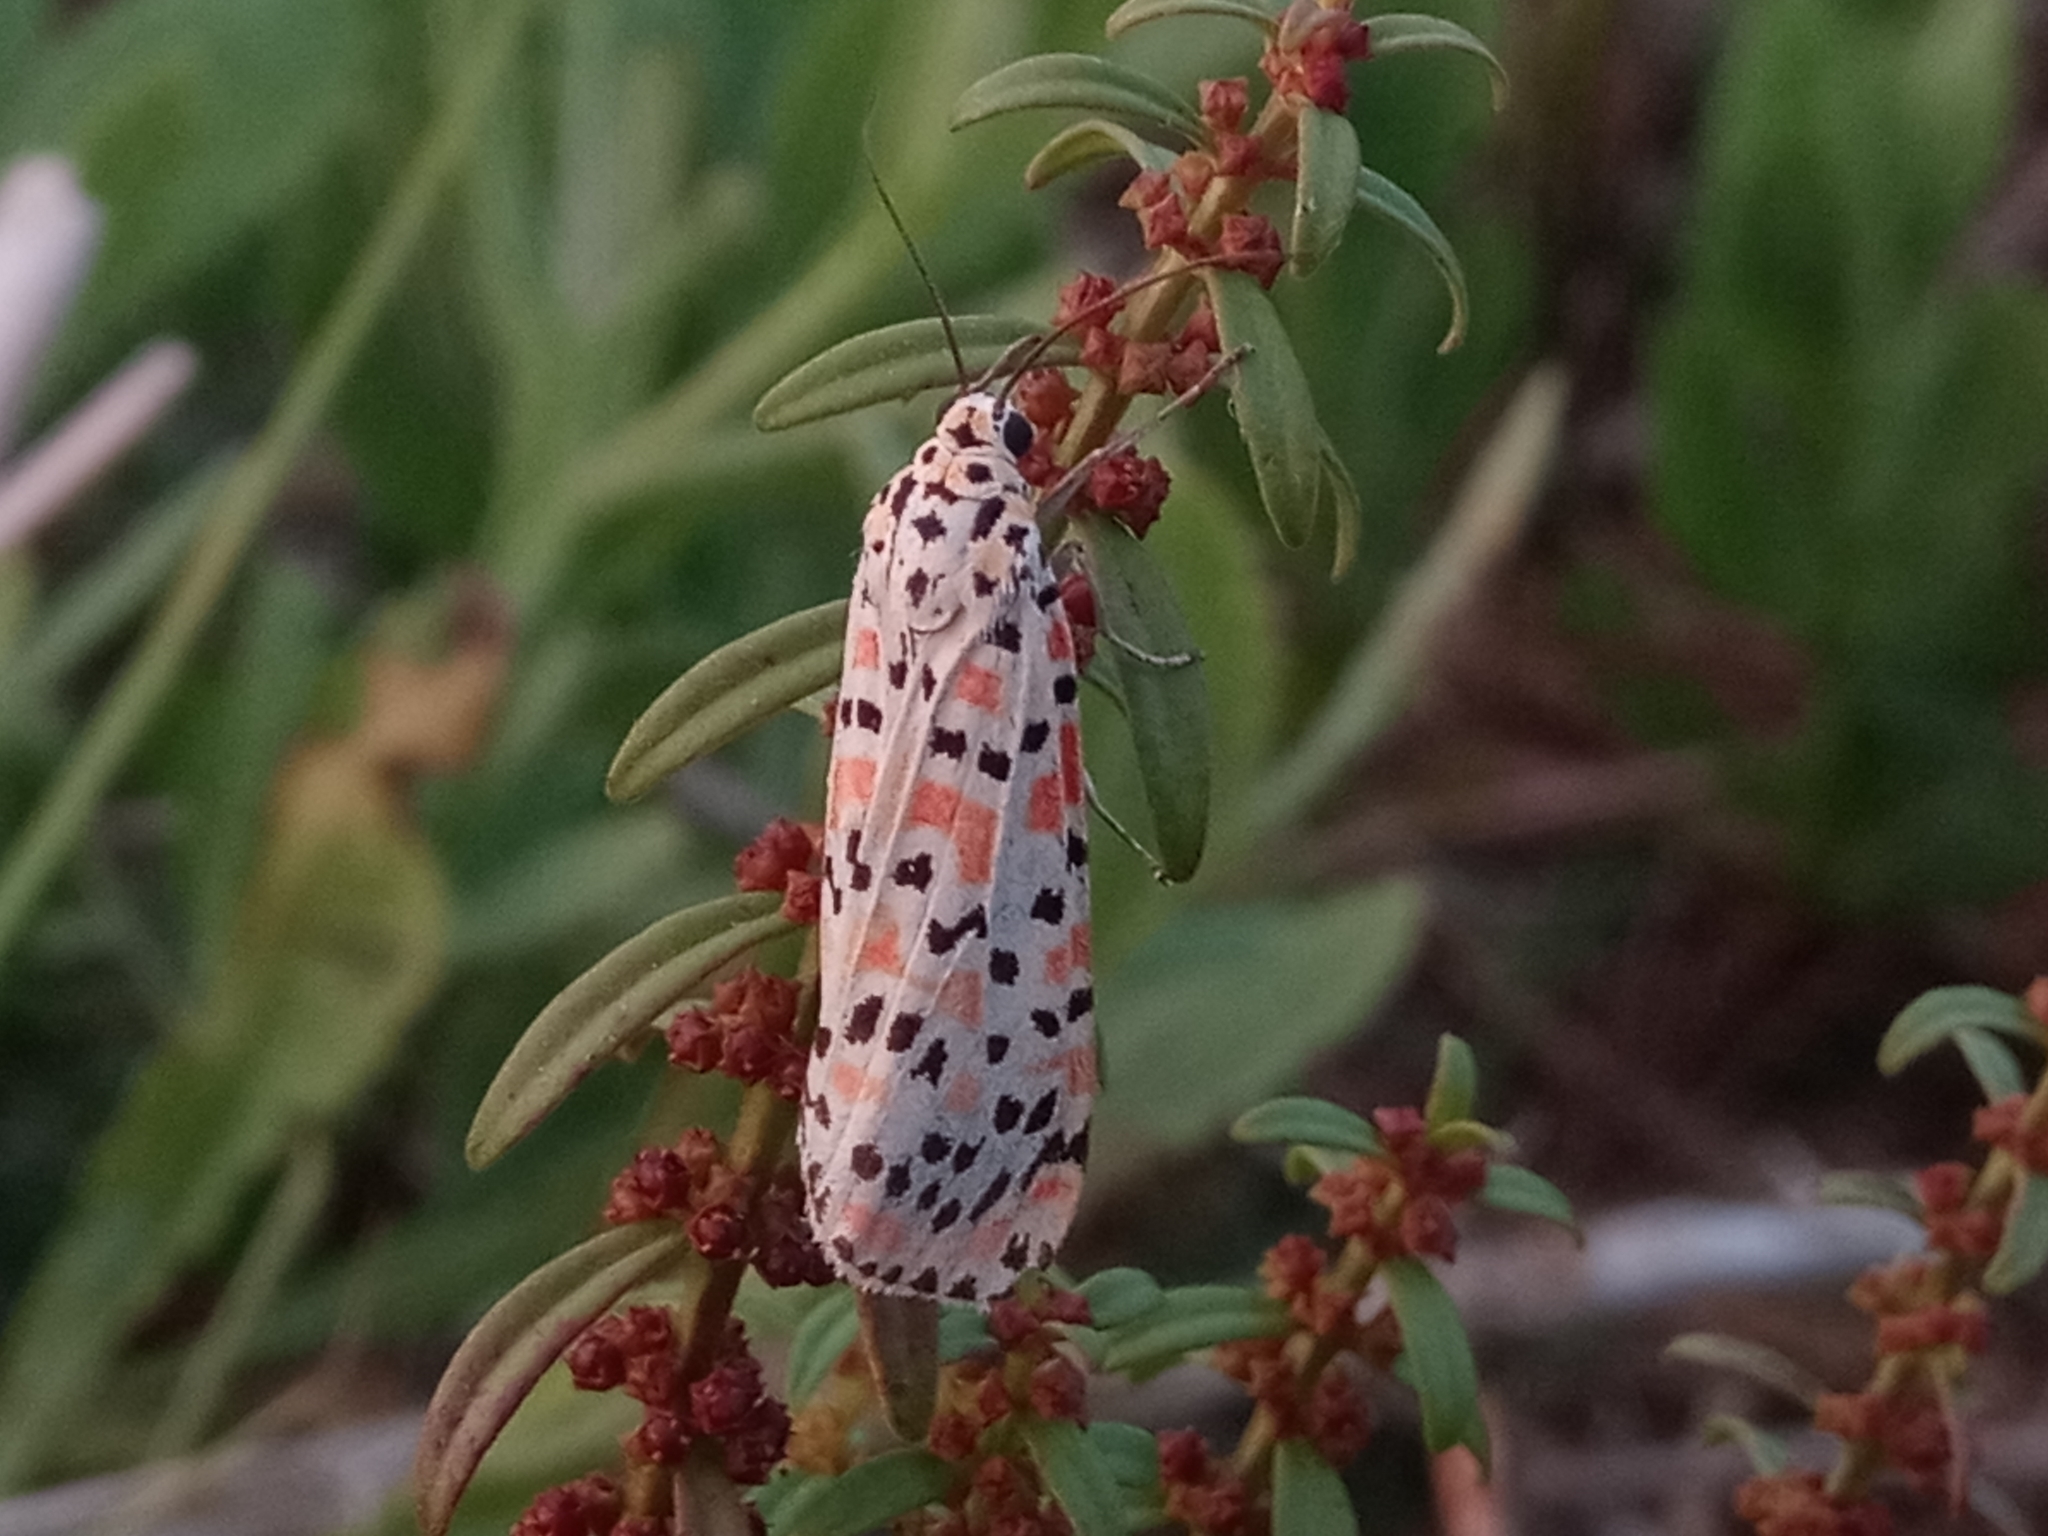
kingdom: Animalia
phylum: Arthropoda
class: Insecta
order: Lepidoptera
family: Erebidae
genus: Utetheisa
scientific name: Utetheisa lotrix
